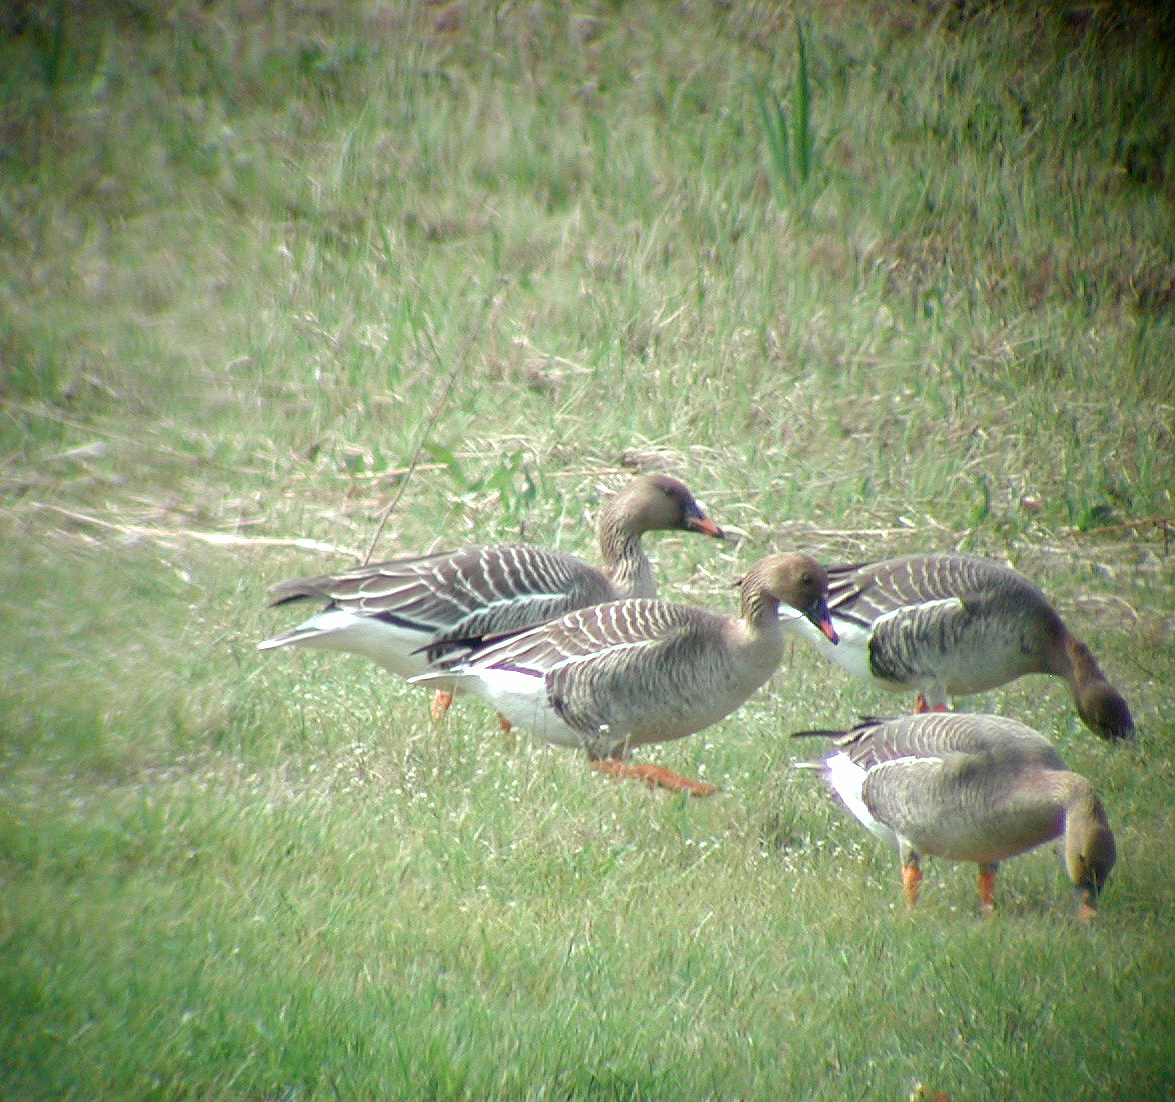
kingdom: Animalia
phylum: Chordata
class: Aves
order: Anseriformes
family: Anatidae
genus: Anser
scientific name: Anser fabalis
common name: Bean goose
